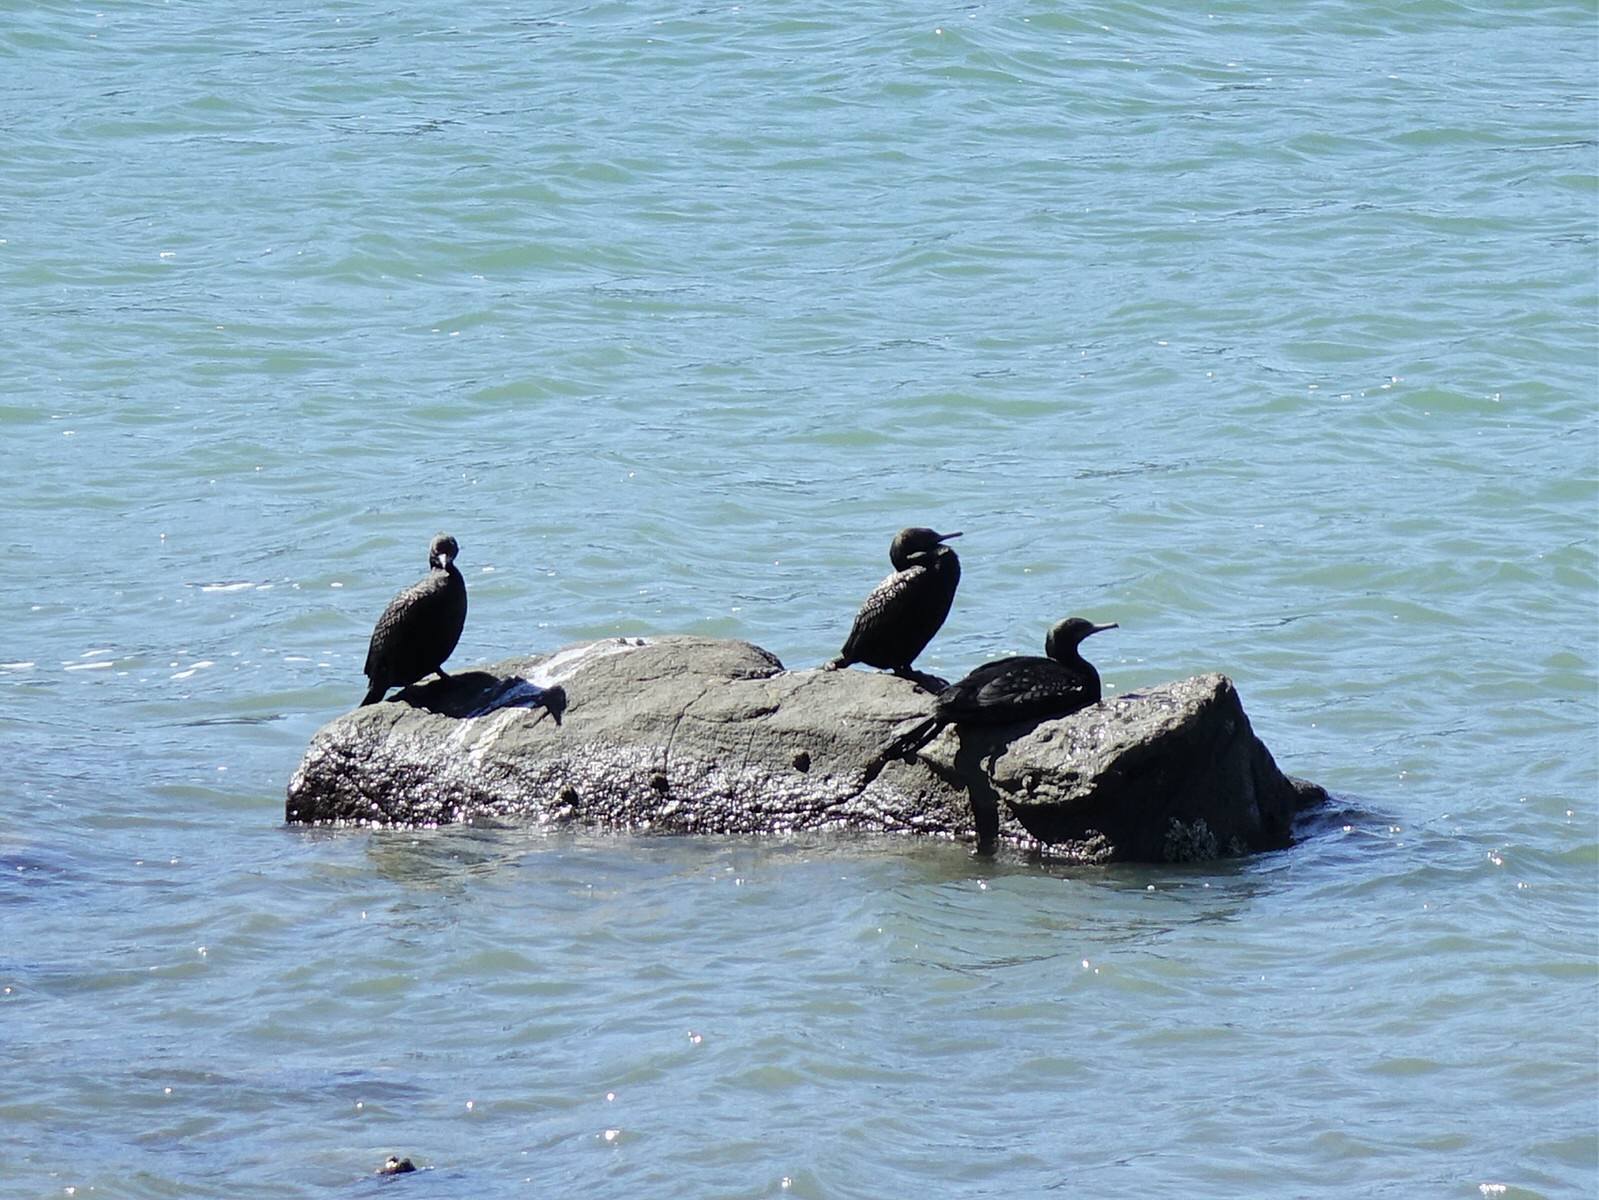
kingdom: Animalia
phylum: Chordata
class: Aves
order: Suliformes
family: Phalacrocoracidae
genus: Phalacrocorax
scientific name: Phalacrocorax sulcirostris
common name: Little black cormorant
